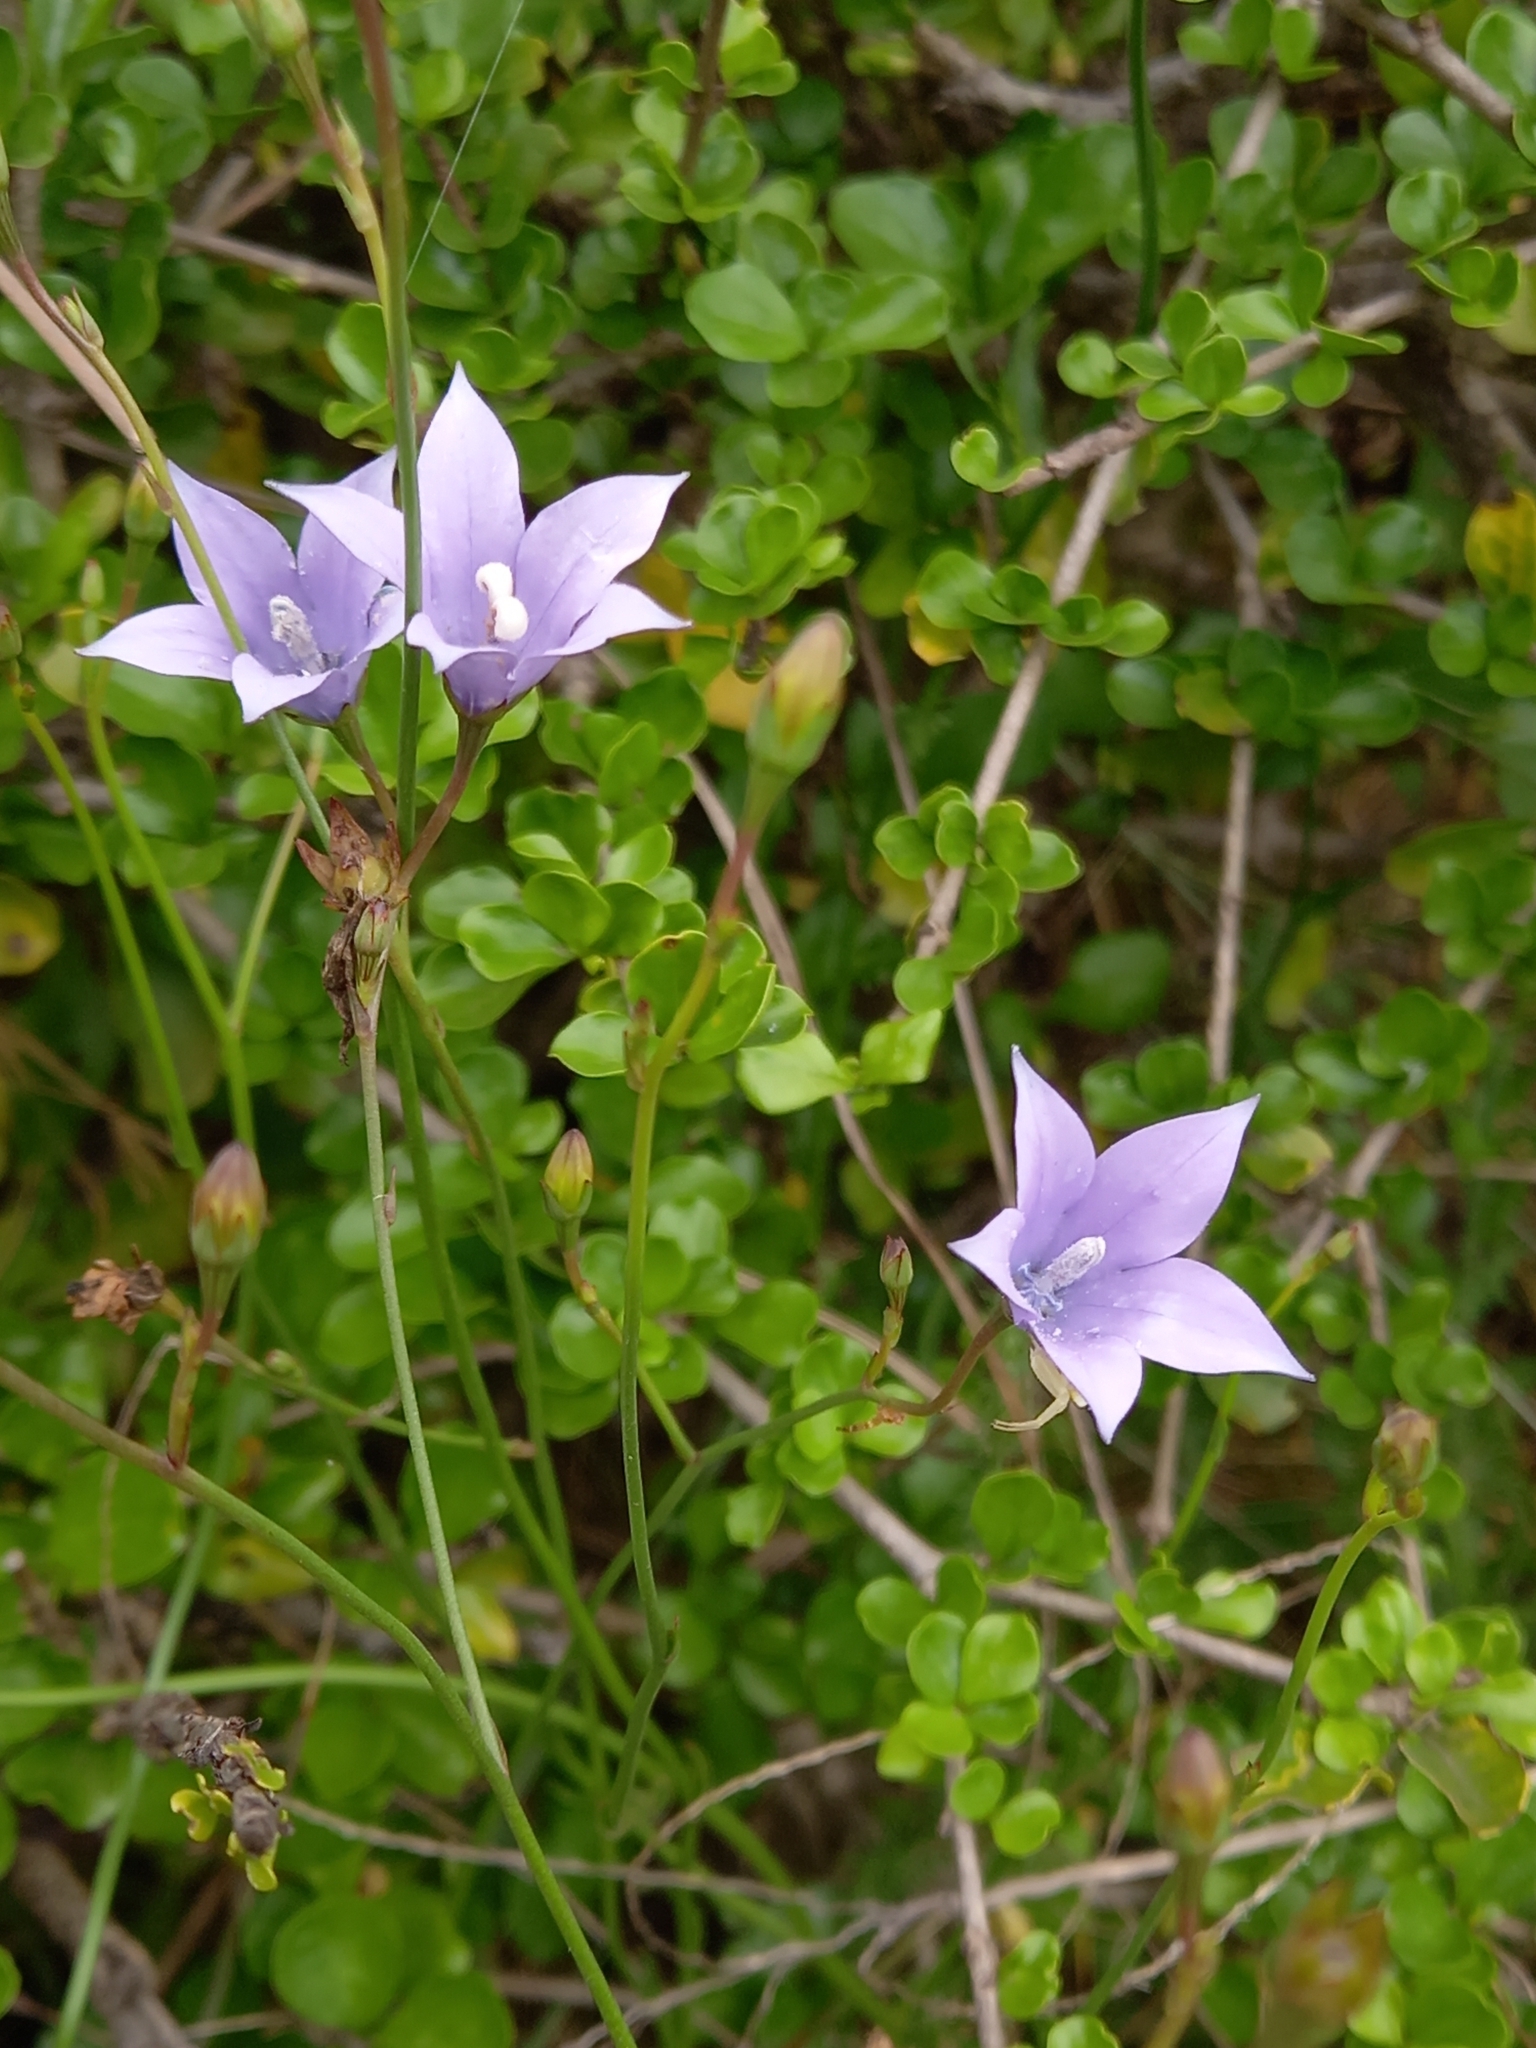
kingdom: Plantae
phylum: Tracheophyta
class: Magnoliopsida
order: Asterales
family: Campanulaceae
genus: Wahlenbergia
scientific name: Wahlenbergia undulata
